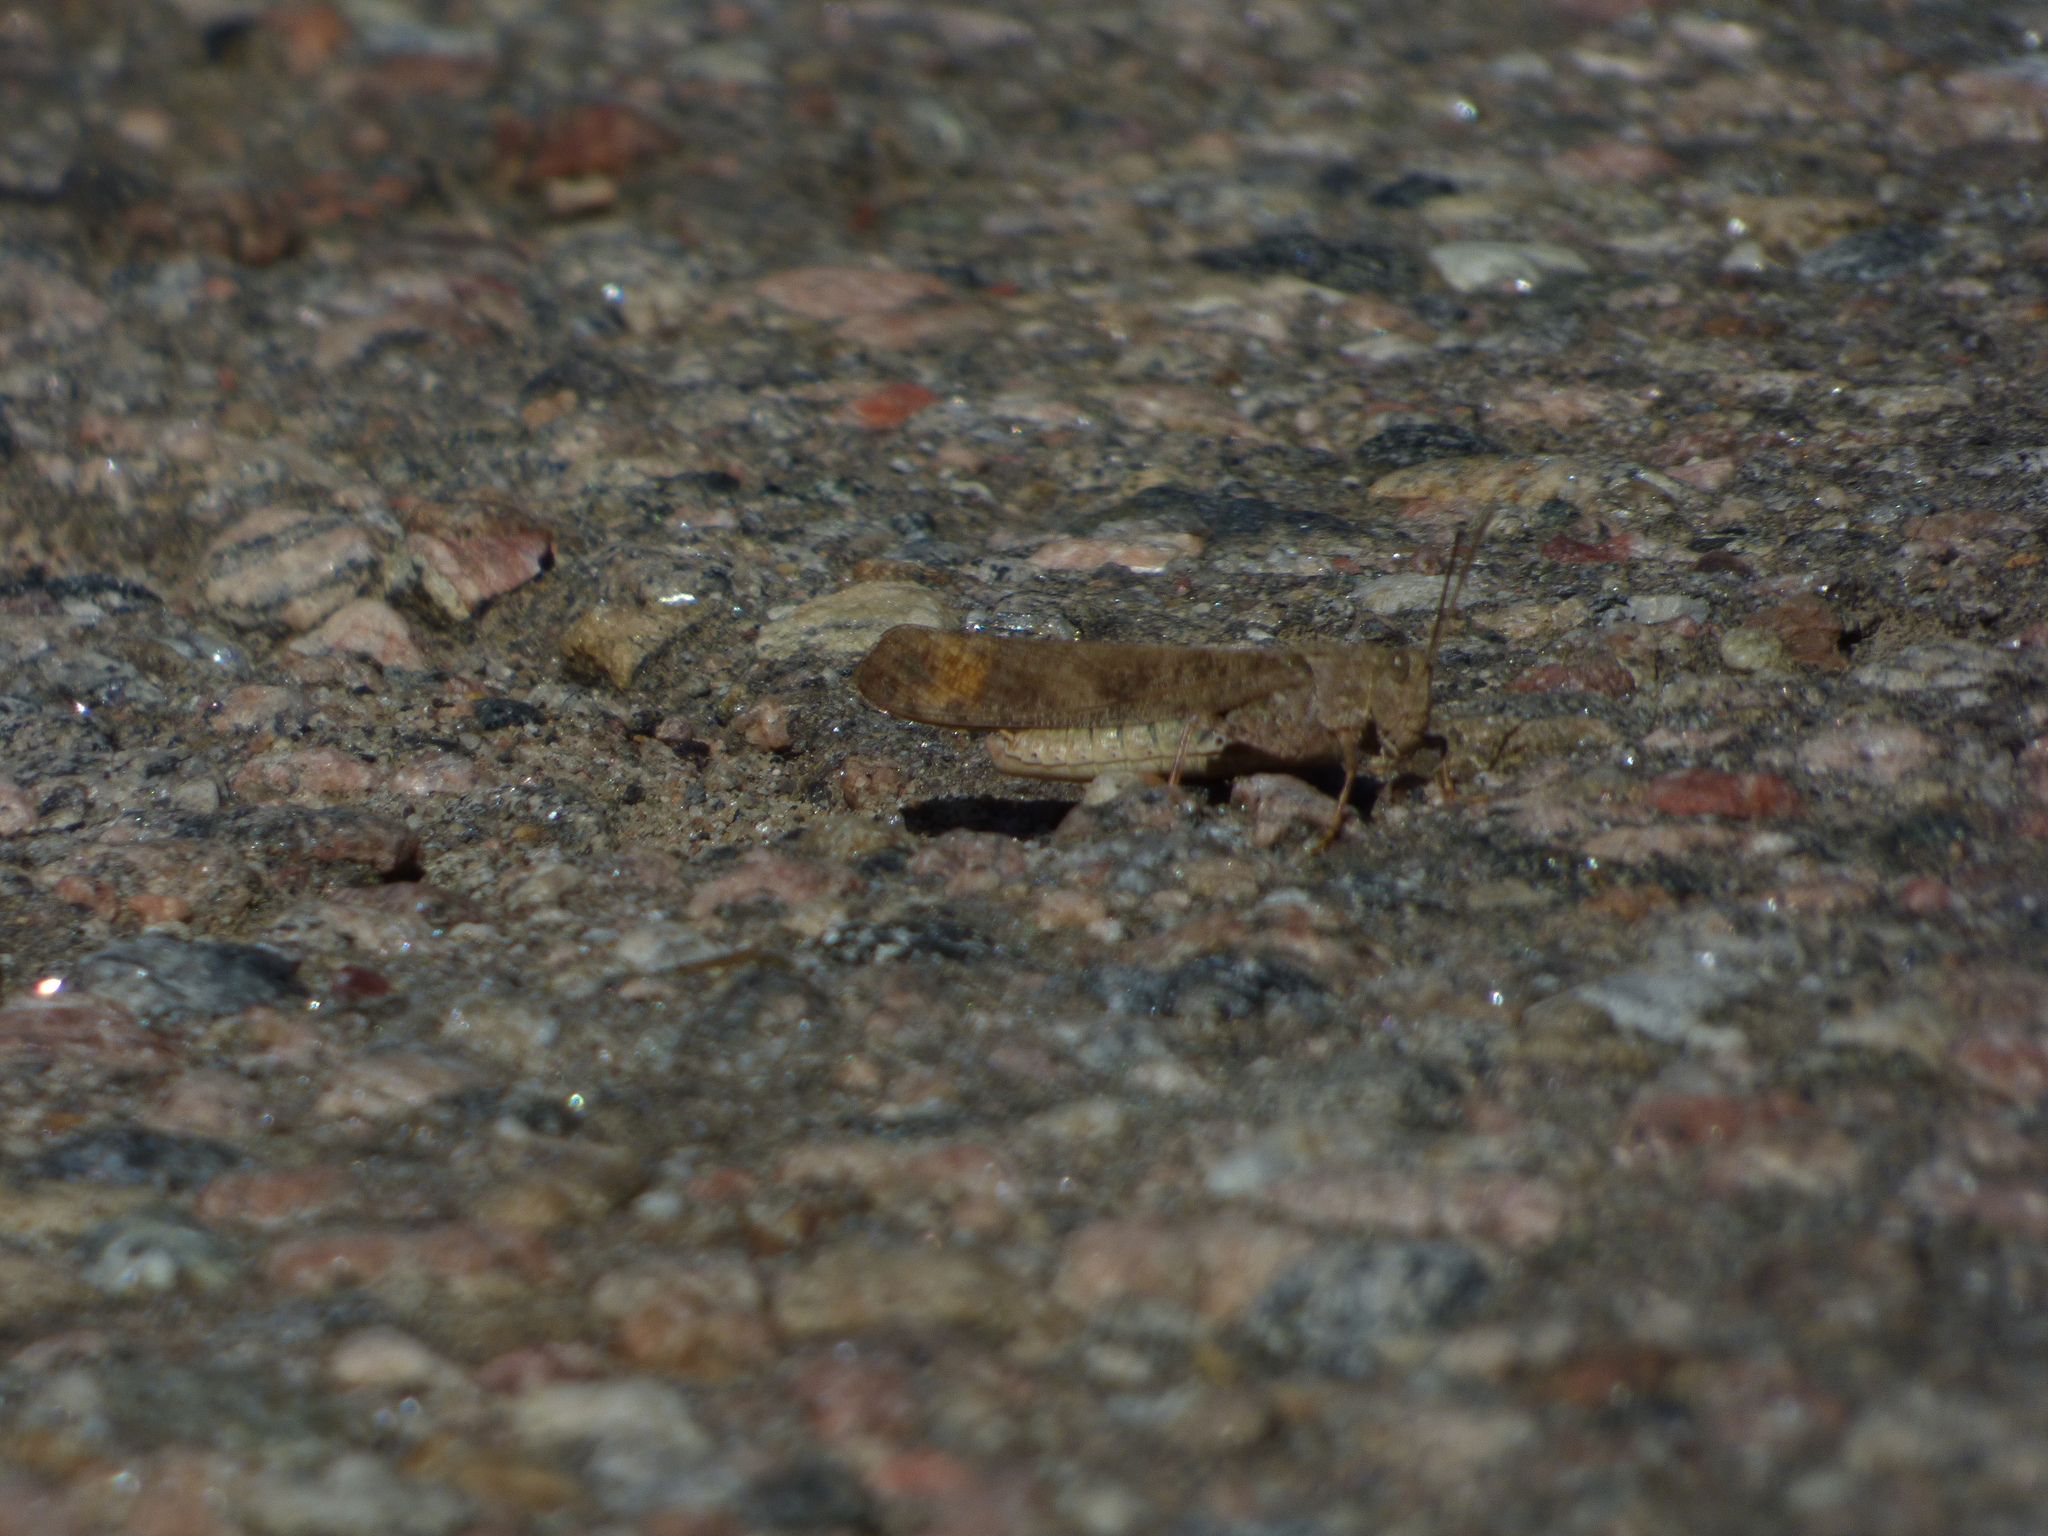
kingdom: Animalia
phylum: Arthropoda
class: Insecta
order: Orthoptera
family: Acrididae
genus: Dissosteira
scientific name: Dissosteira carolina
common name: Carolina grasshopper
